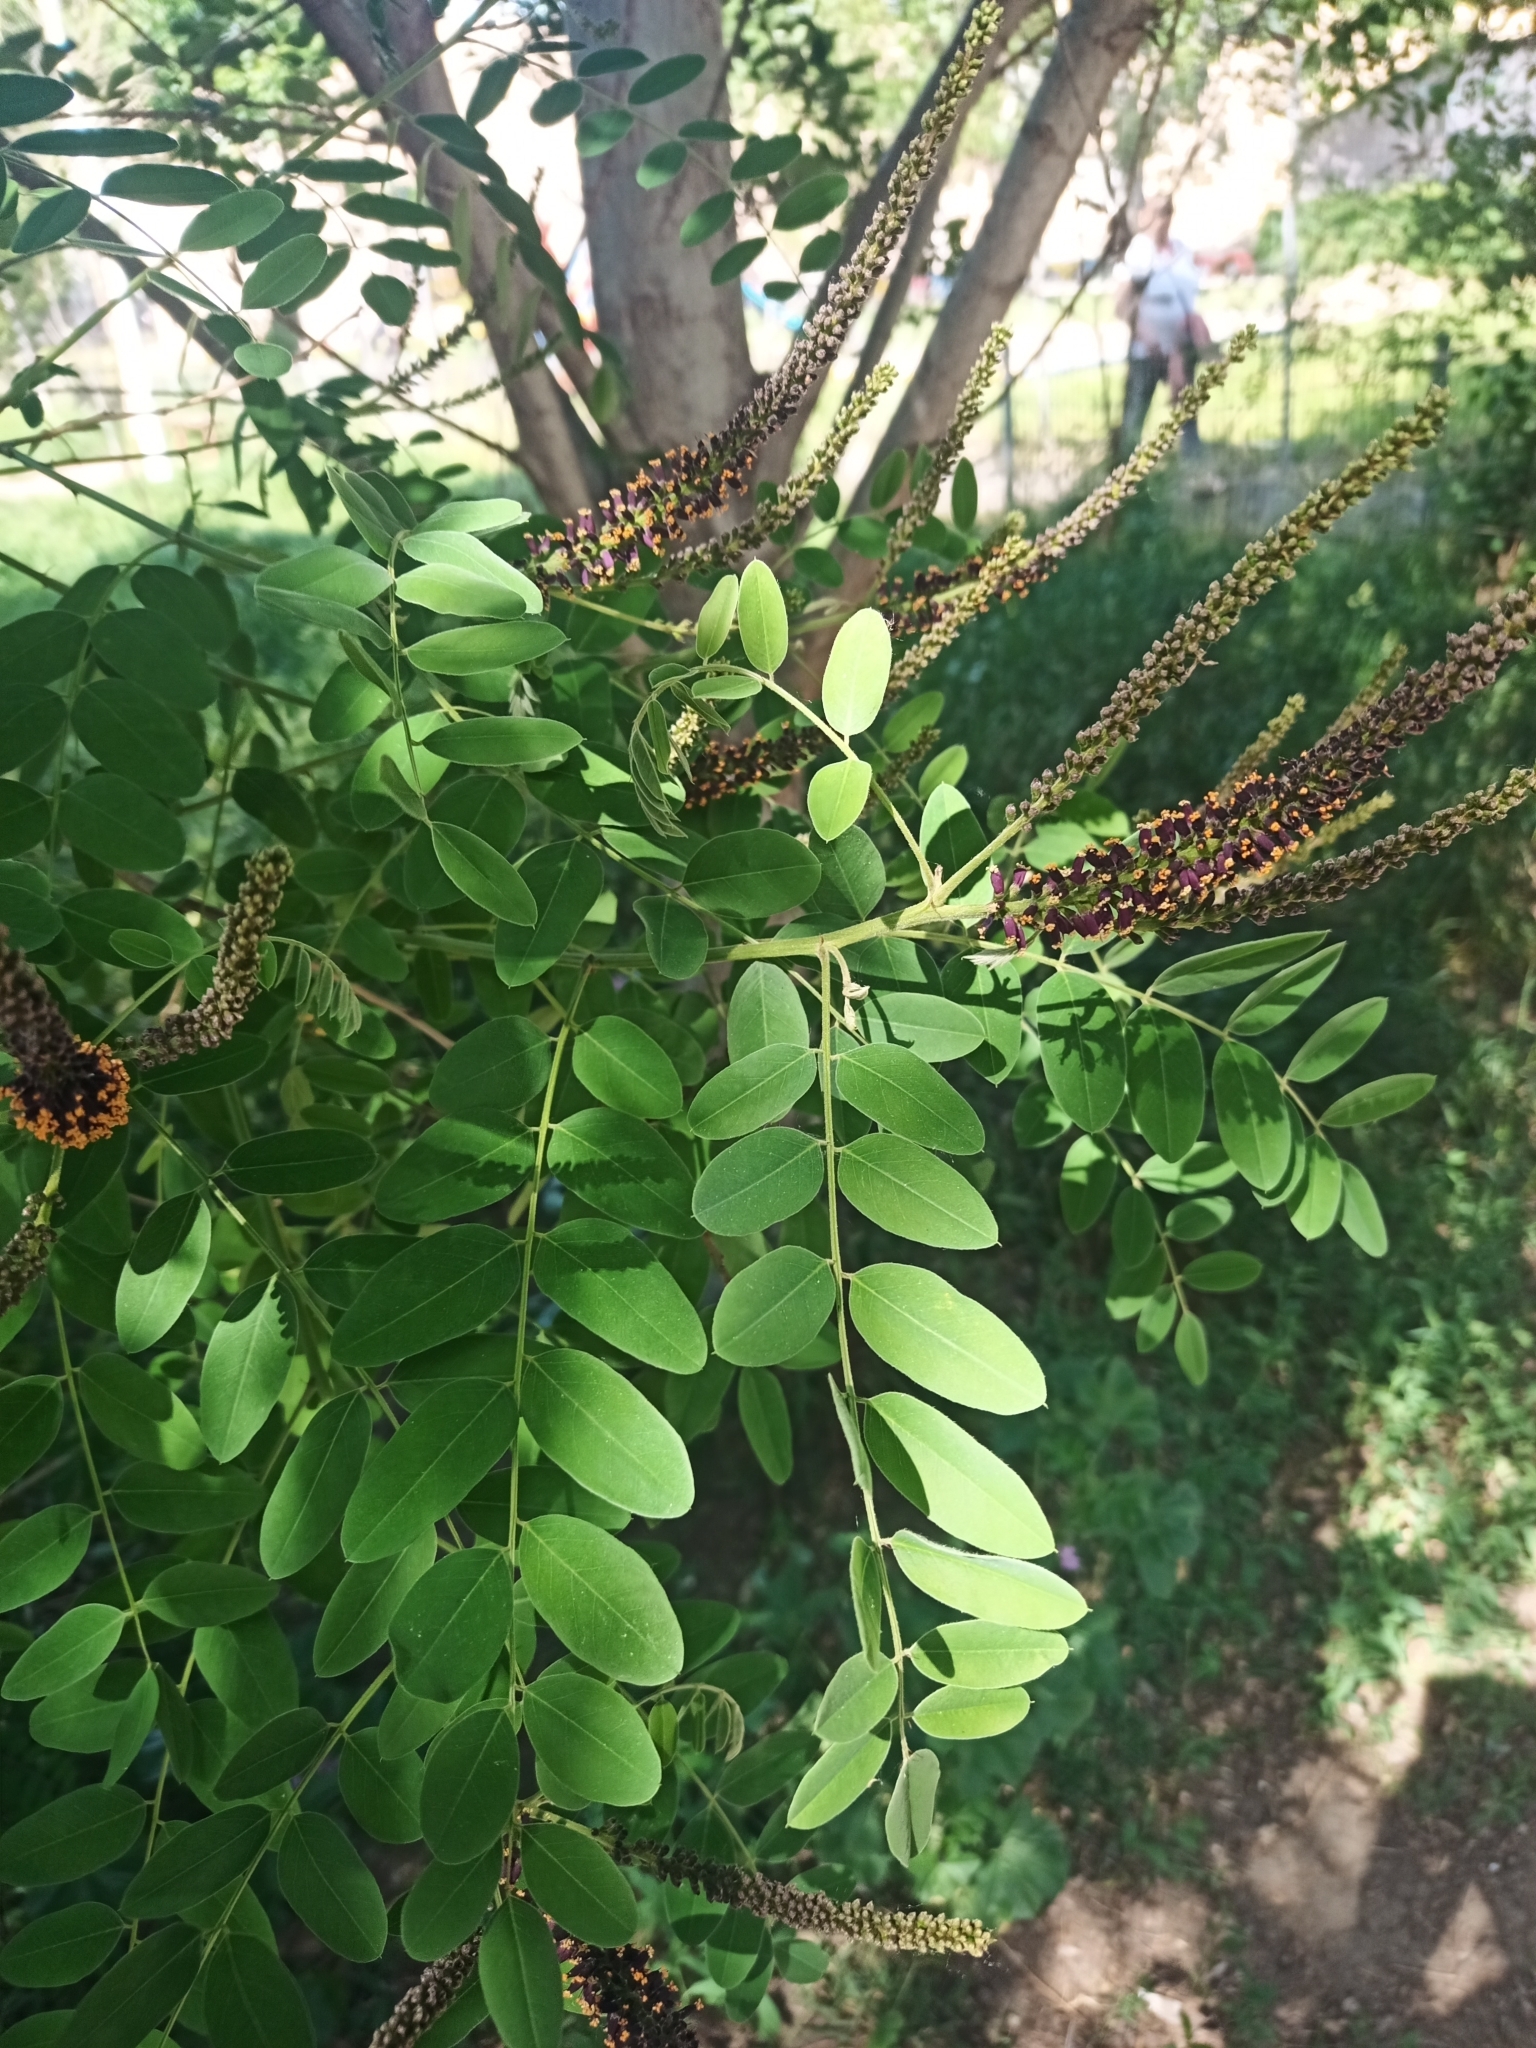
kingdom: Plantae
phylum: Tracheophyta
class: Magnoliopsida
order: Fabales
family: Fabaceae
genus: Amorpha
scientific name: Amorpha fruticosa
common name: False indigo
